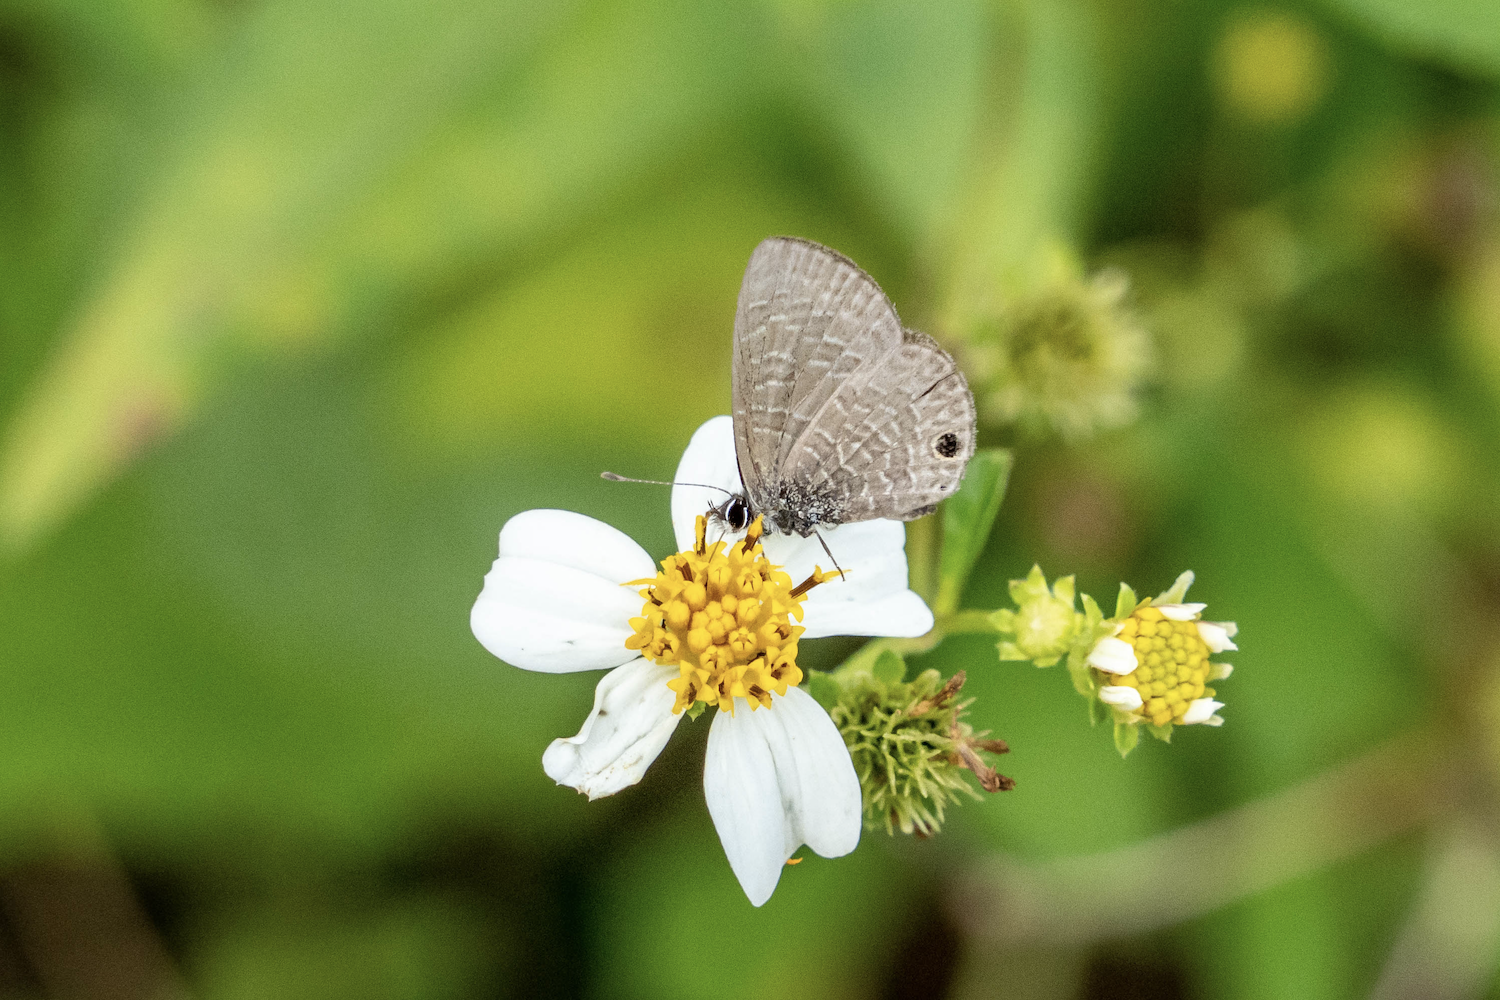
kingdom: Animalia
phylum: Arthropoda
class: Insecta
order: Lepidoptera
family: Lycaenidae
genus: Prosotas
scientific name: Prosotas dubiosa
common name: Tailless lineblue
